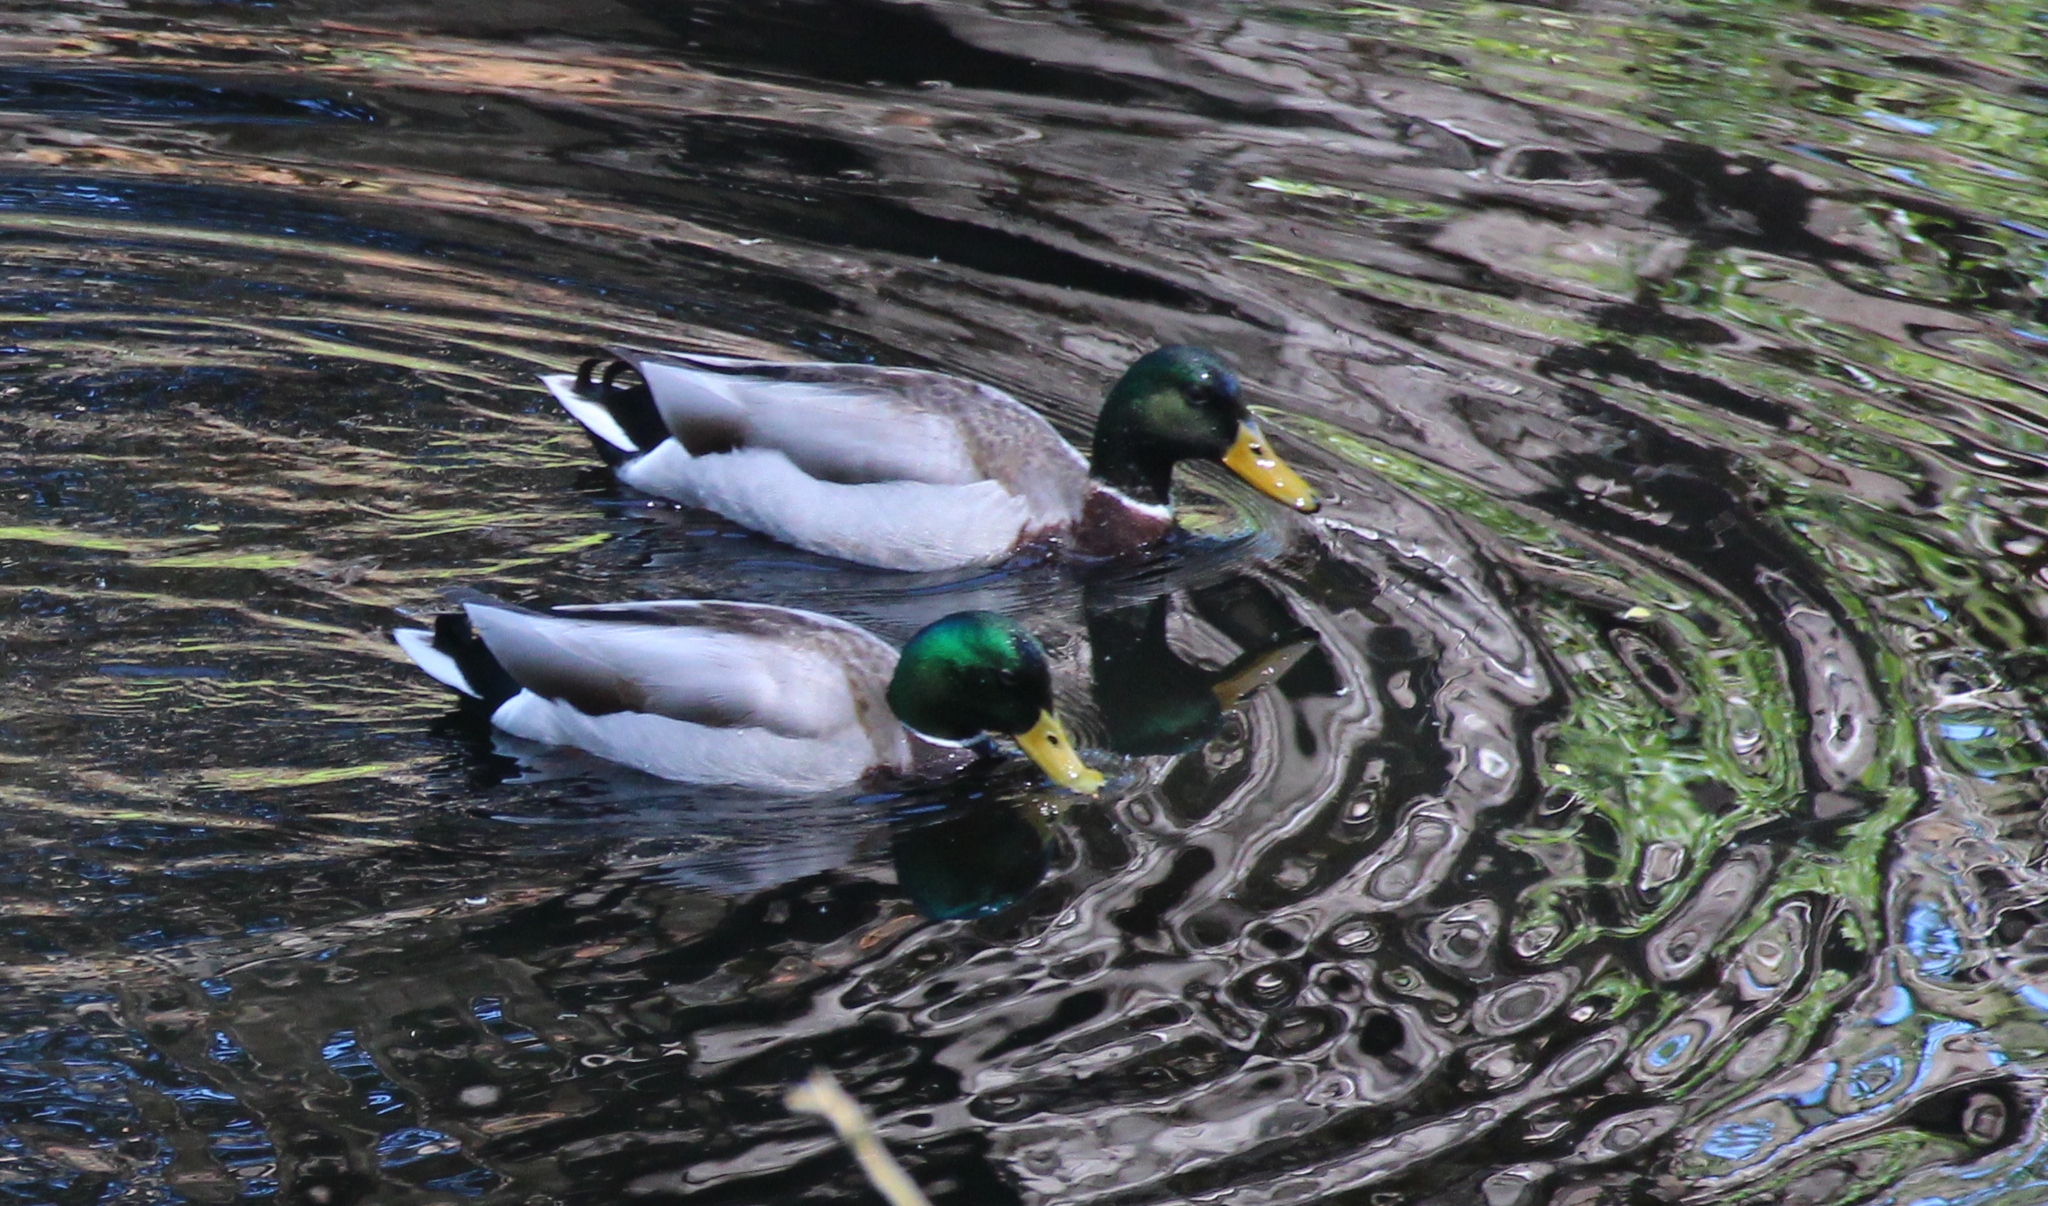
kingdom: Animalia
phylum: Chordata
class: Aves
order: Anseriformes
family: Anatidae
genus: Anas
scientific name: Anas platyrhynchos
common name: Mallard
